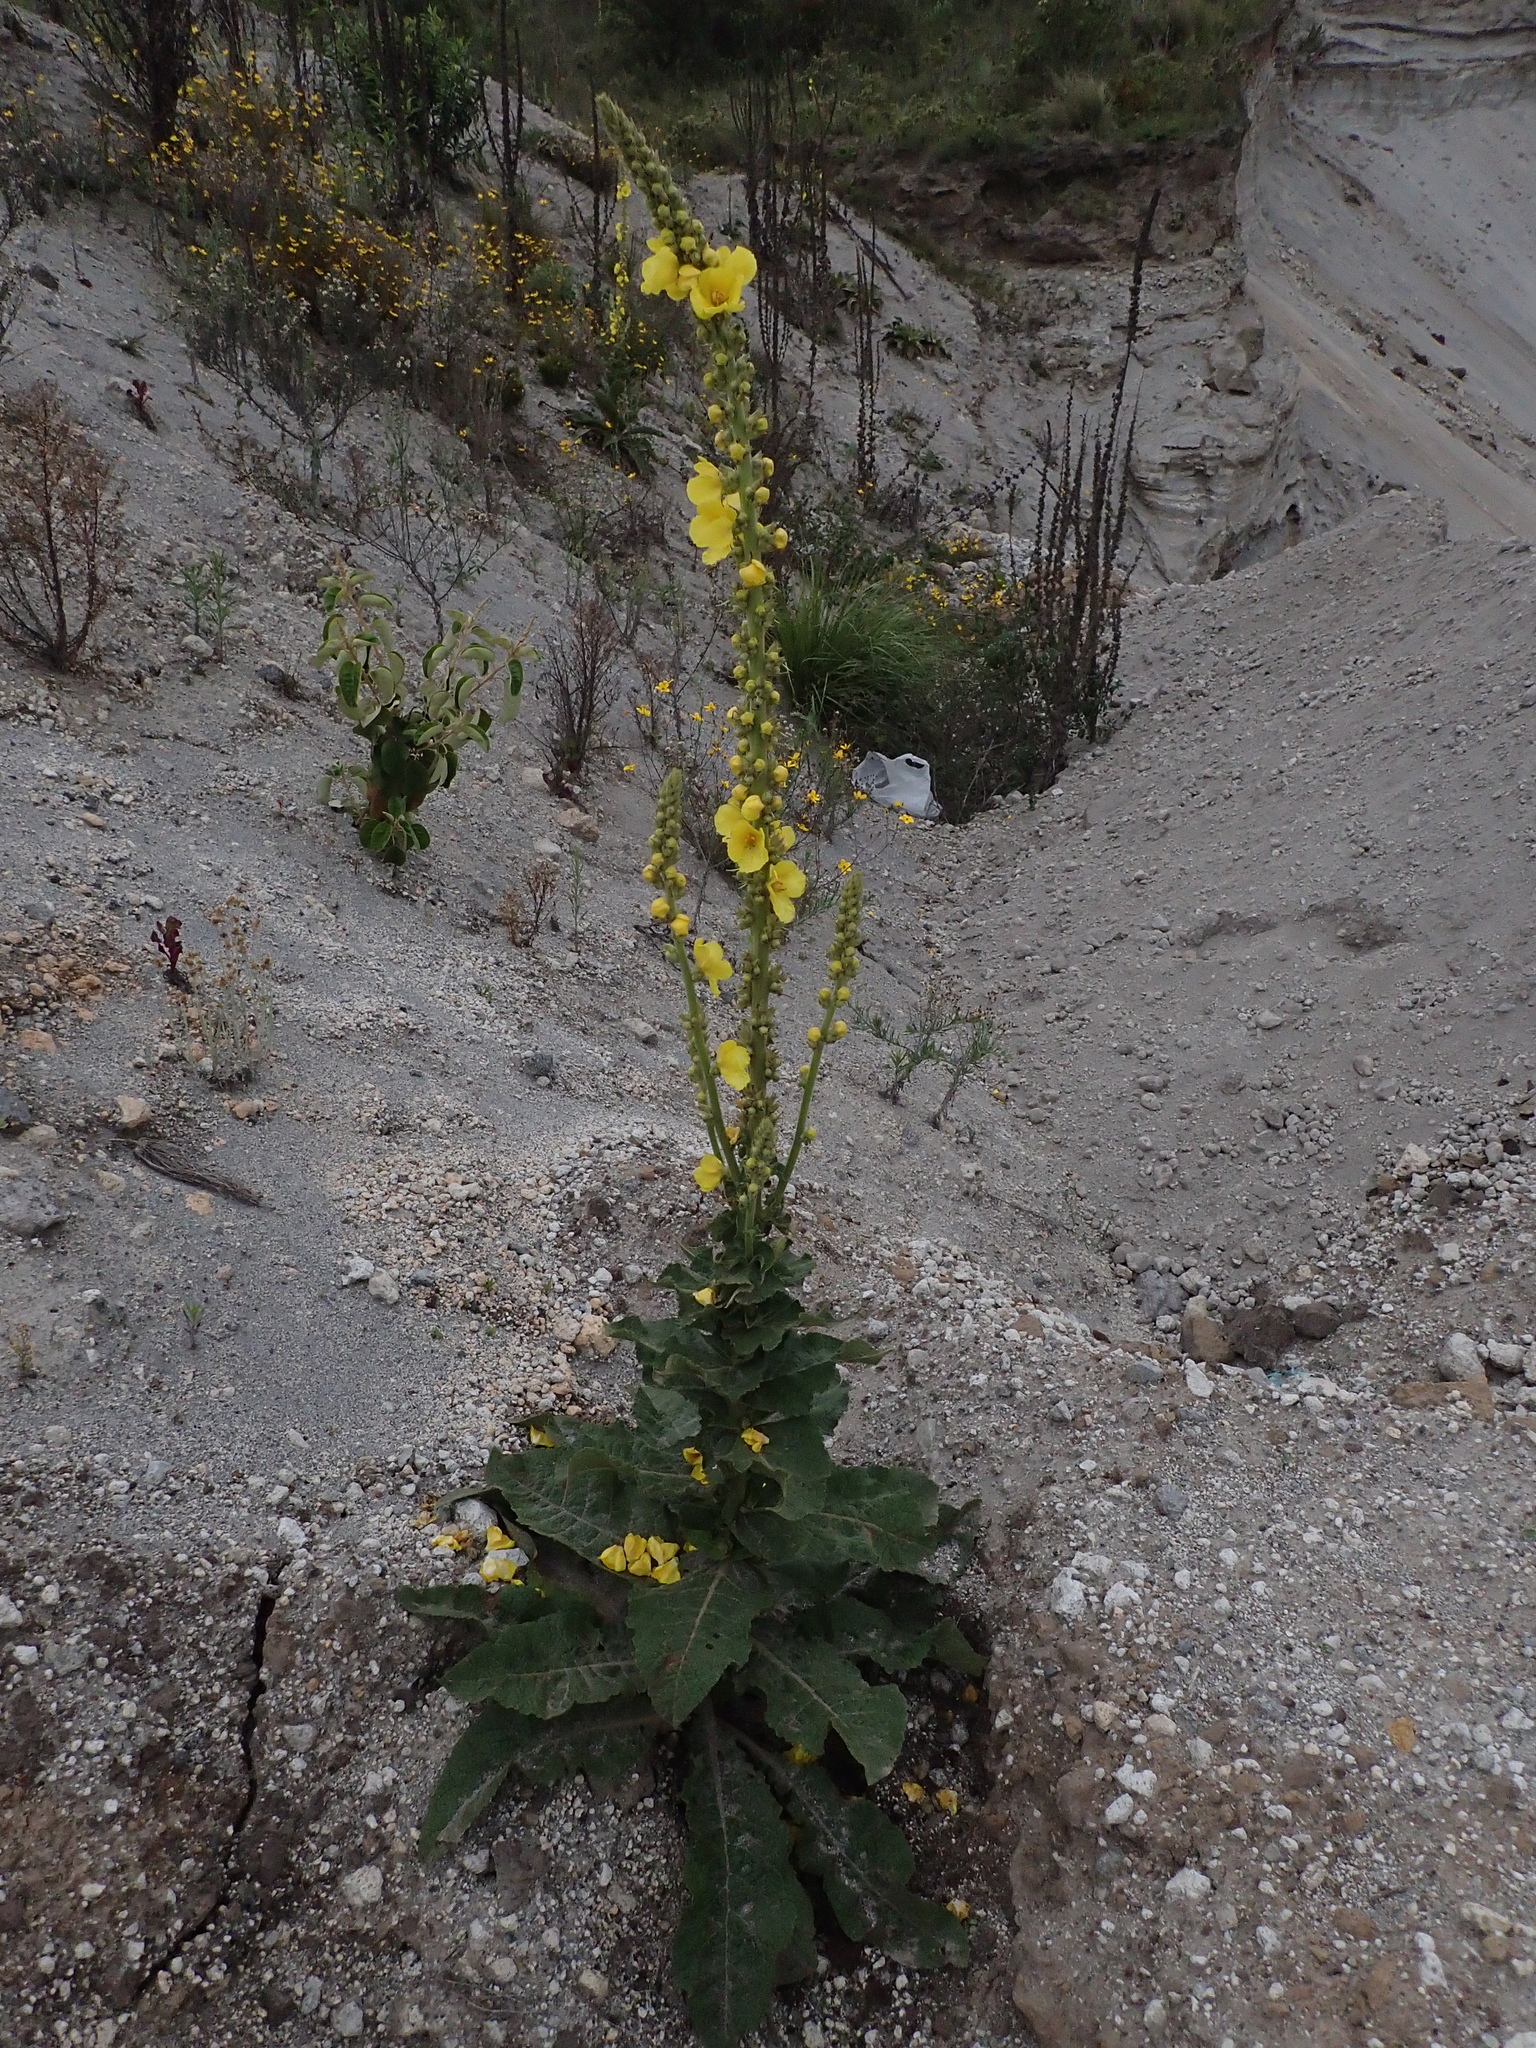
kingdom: Plantae
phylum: Tracheophyta
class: Magnoliopsida
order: Lamiales
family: Scrophulariaceae
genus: Verbascum
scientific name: Verbascum phlomoides
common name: Orange mullein
